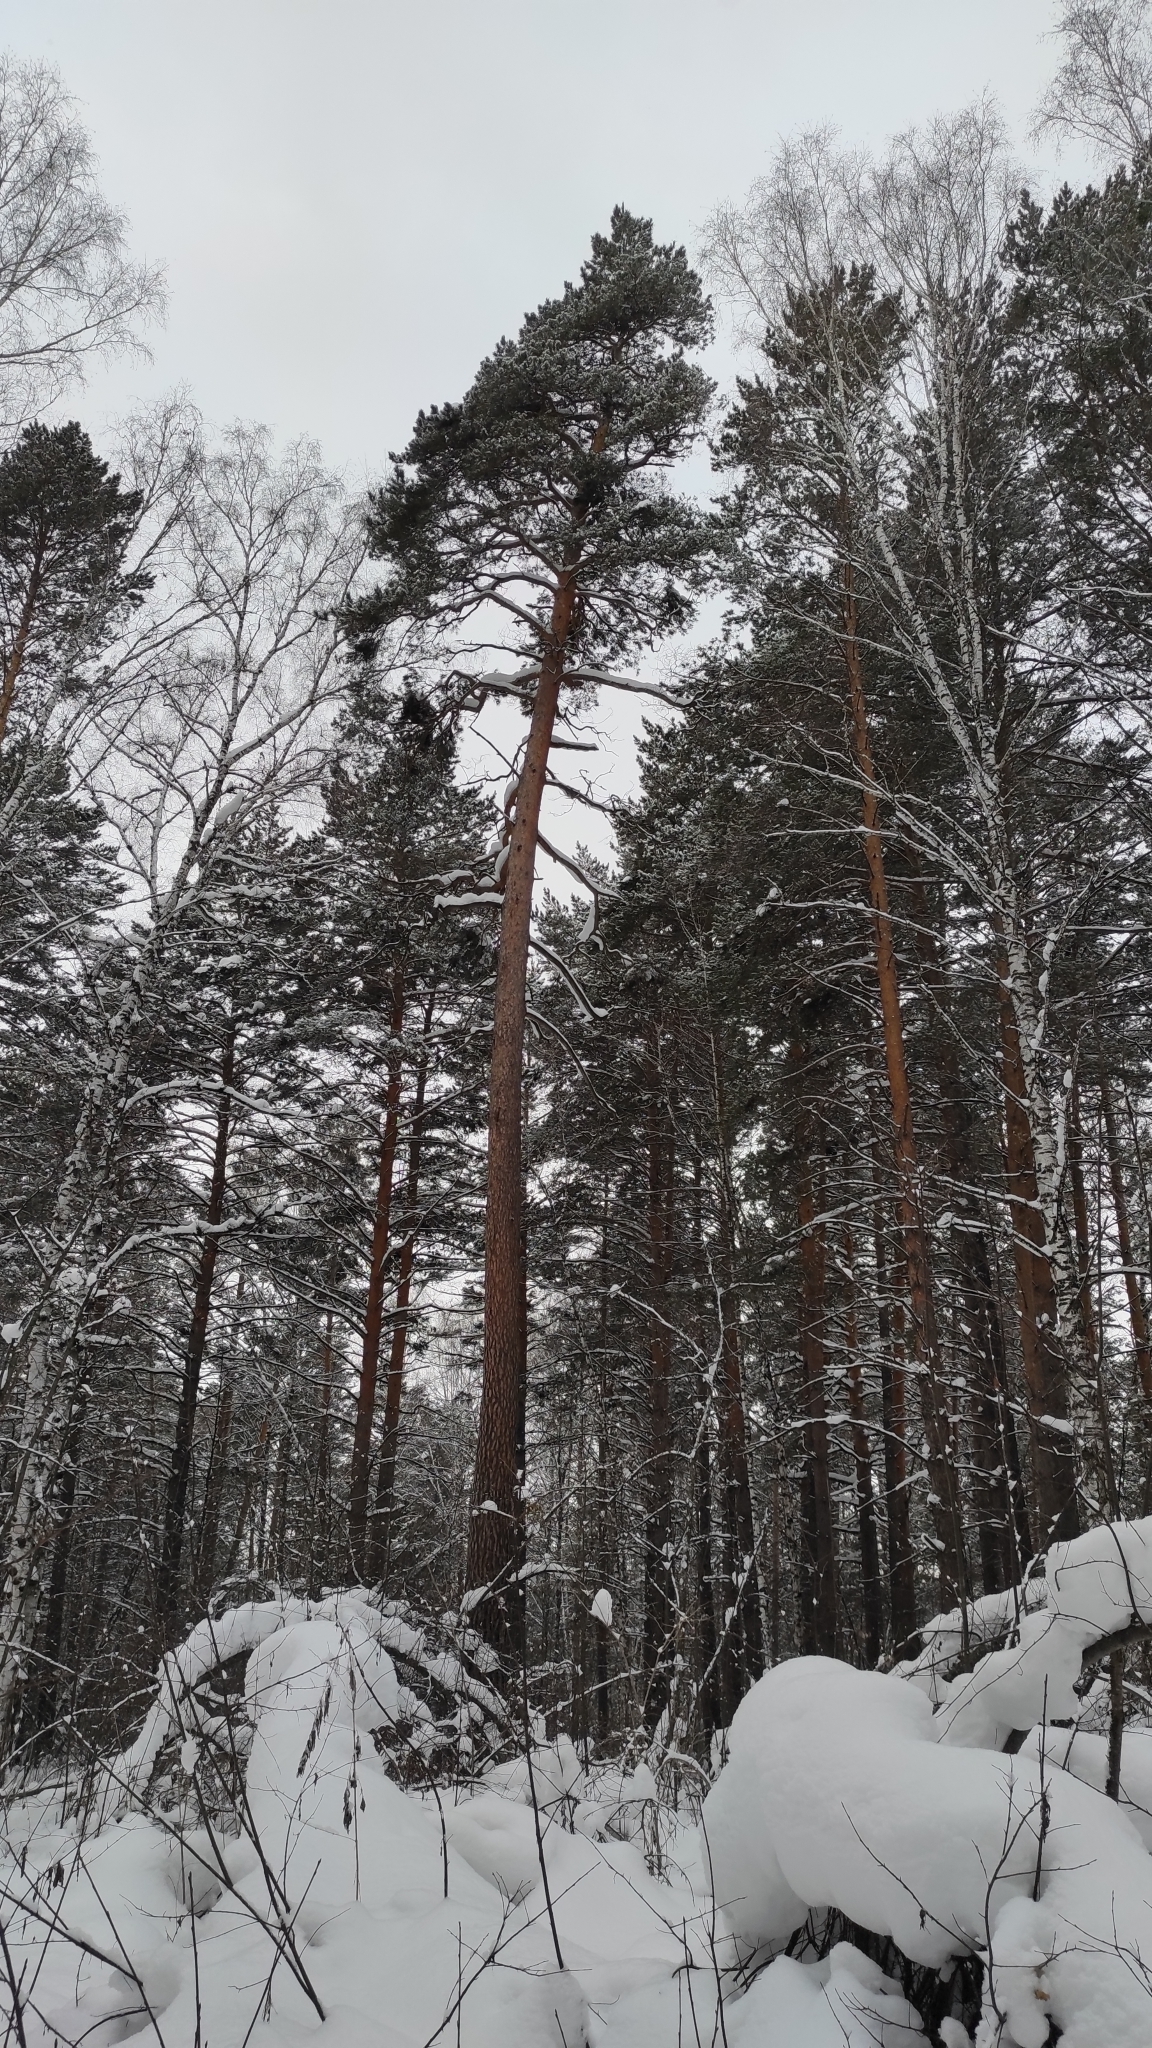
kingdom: Plantae
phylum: Tracheophyta
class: Pinopsida
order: Pinales
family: Pinaceae
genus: Pinus
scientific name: Pinus sylvestris
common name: Scots pine
